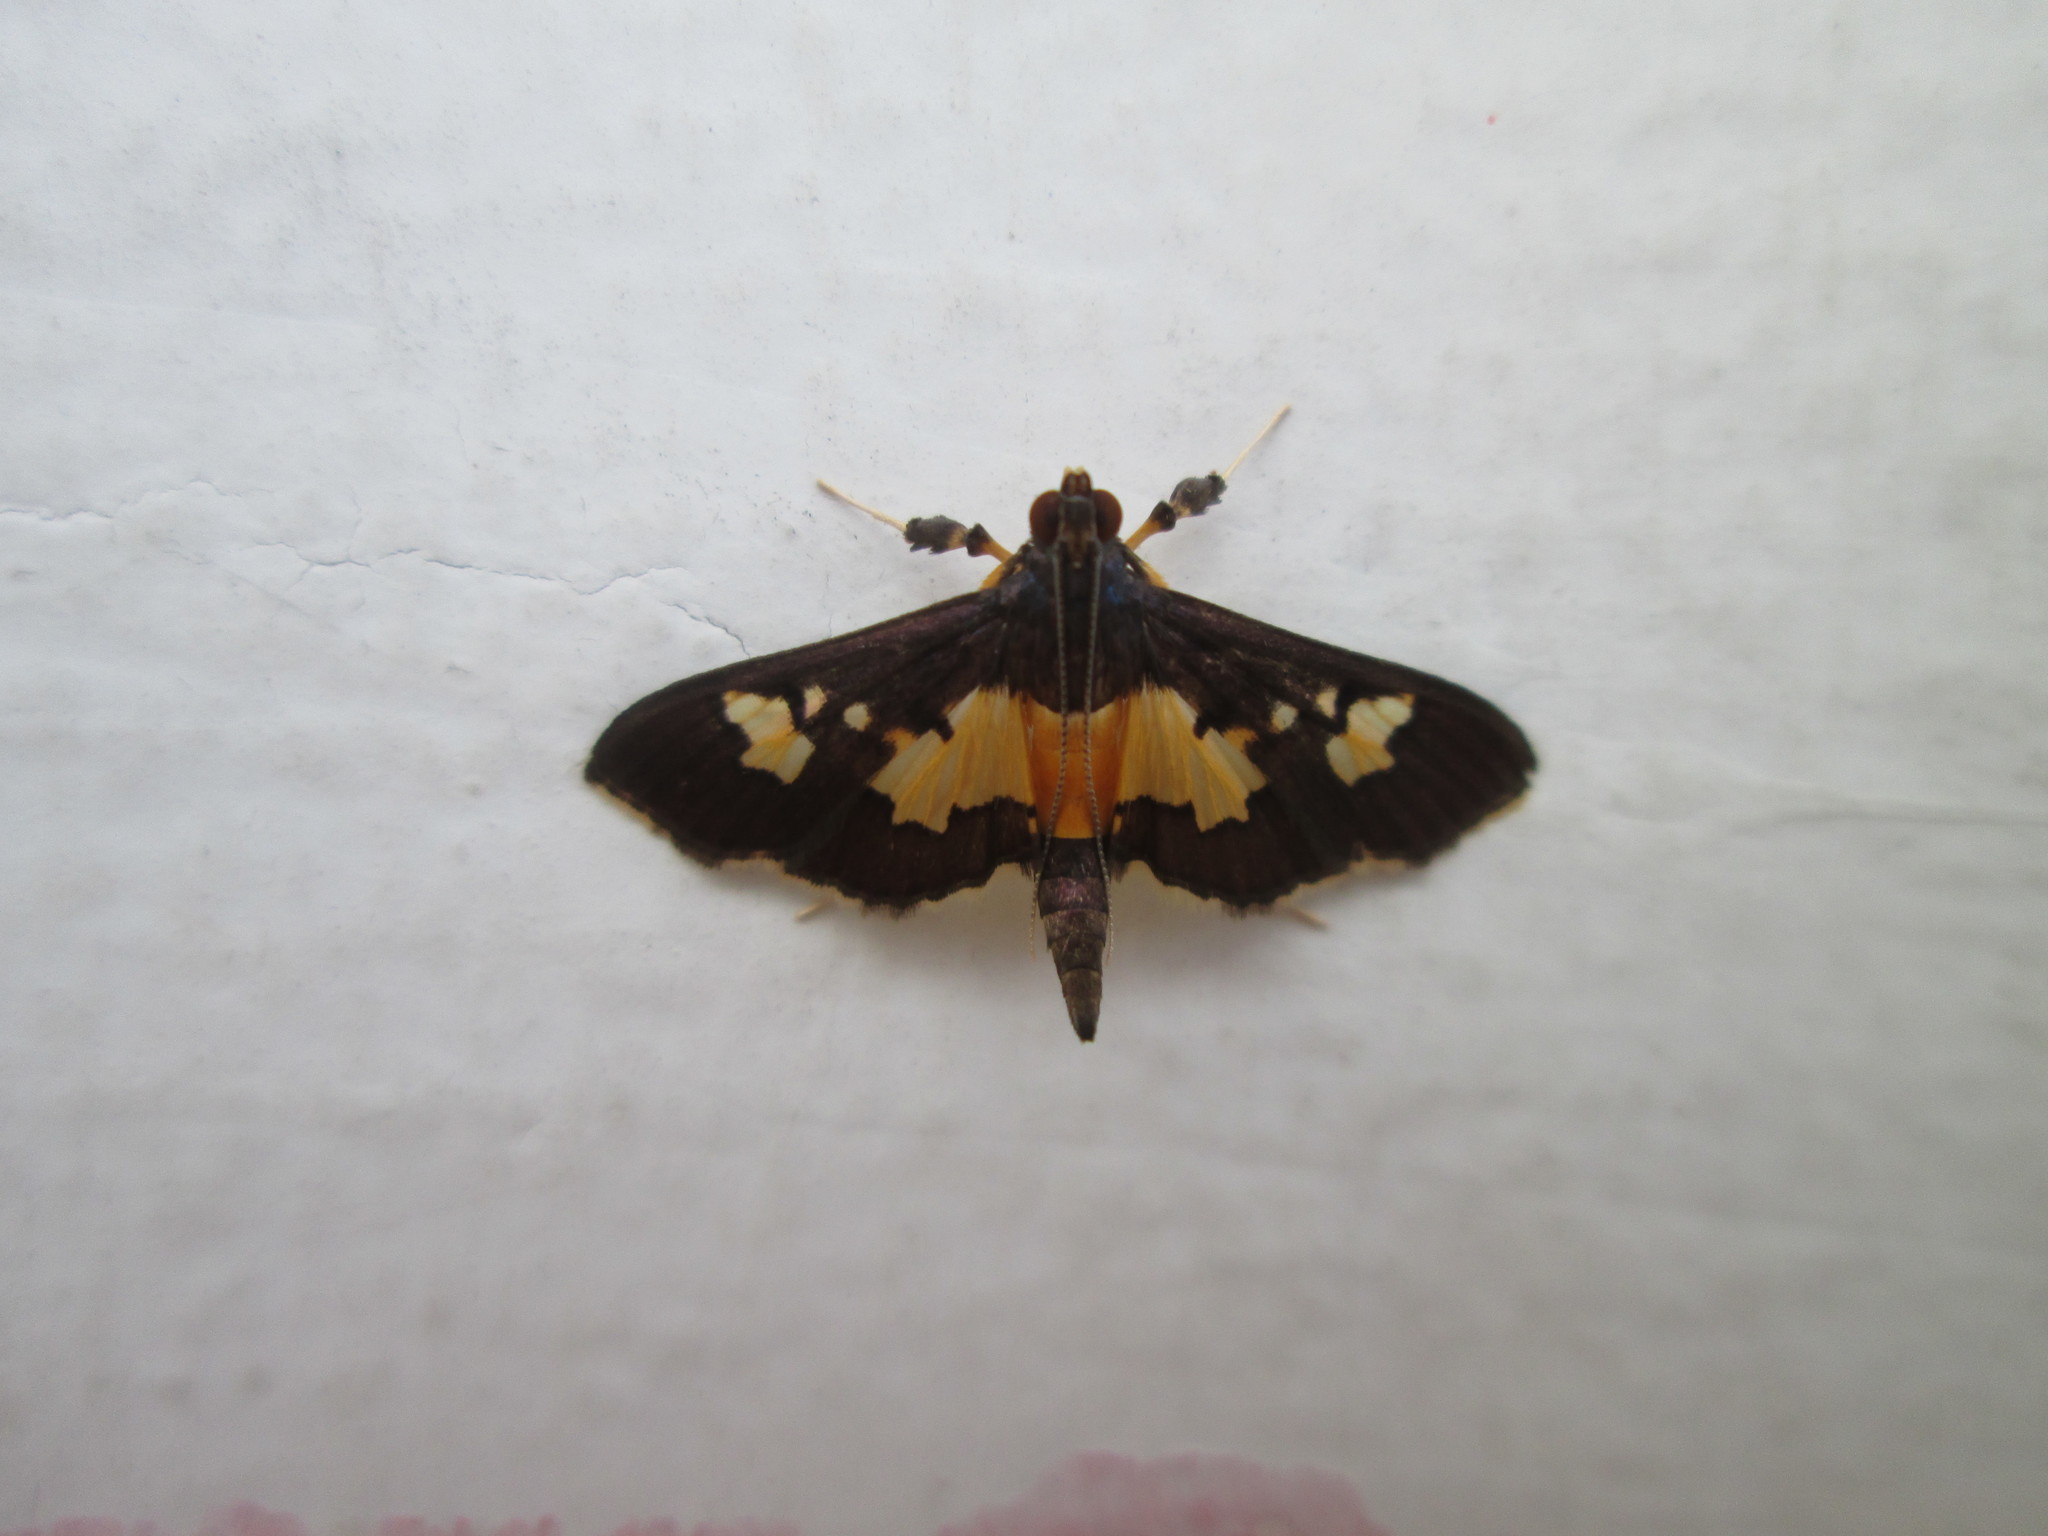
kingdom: Animalia
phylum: Arthropoda
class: Insecta
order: Lepidoptera
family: Crambidae
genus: Salbia
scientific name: Salbia zena
